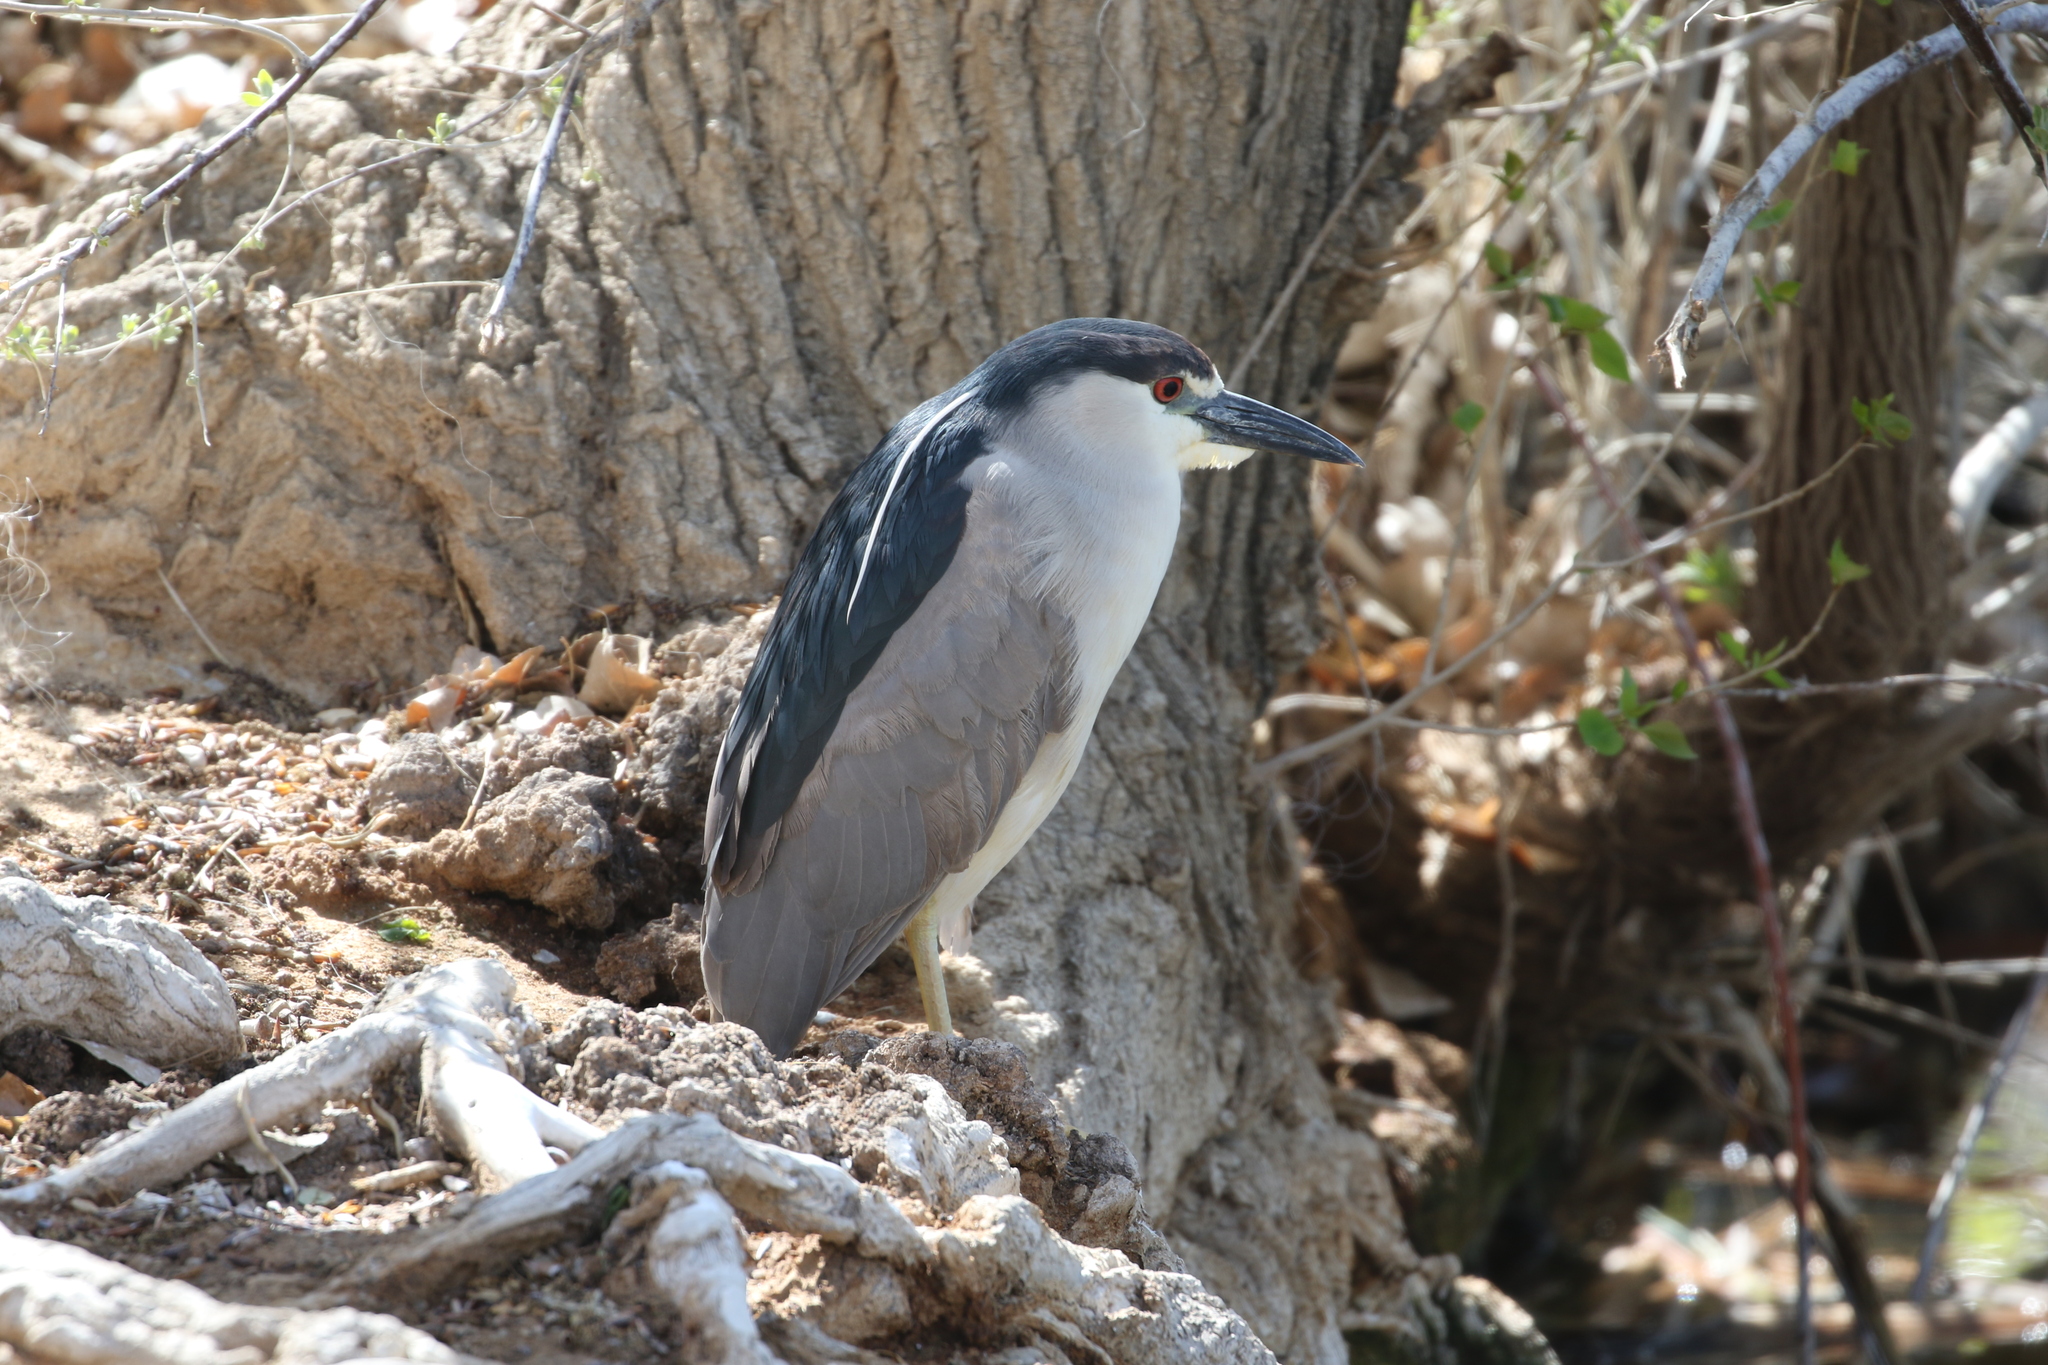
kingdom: Animalia
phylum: Chordata
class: Aves
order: Pelecaniformes
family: Ardeidae
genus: Nycticorax
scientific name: Nycticorax nycticorax
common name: Black-crowned night heron
